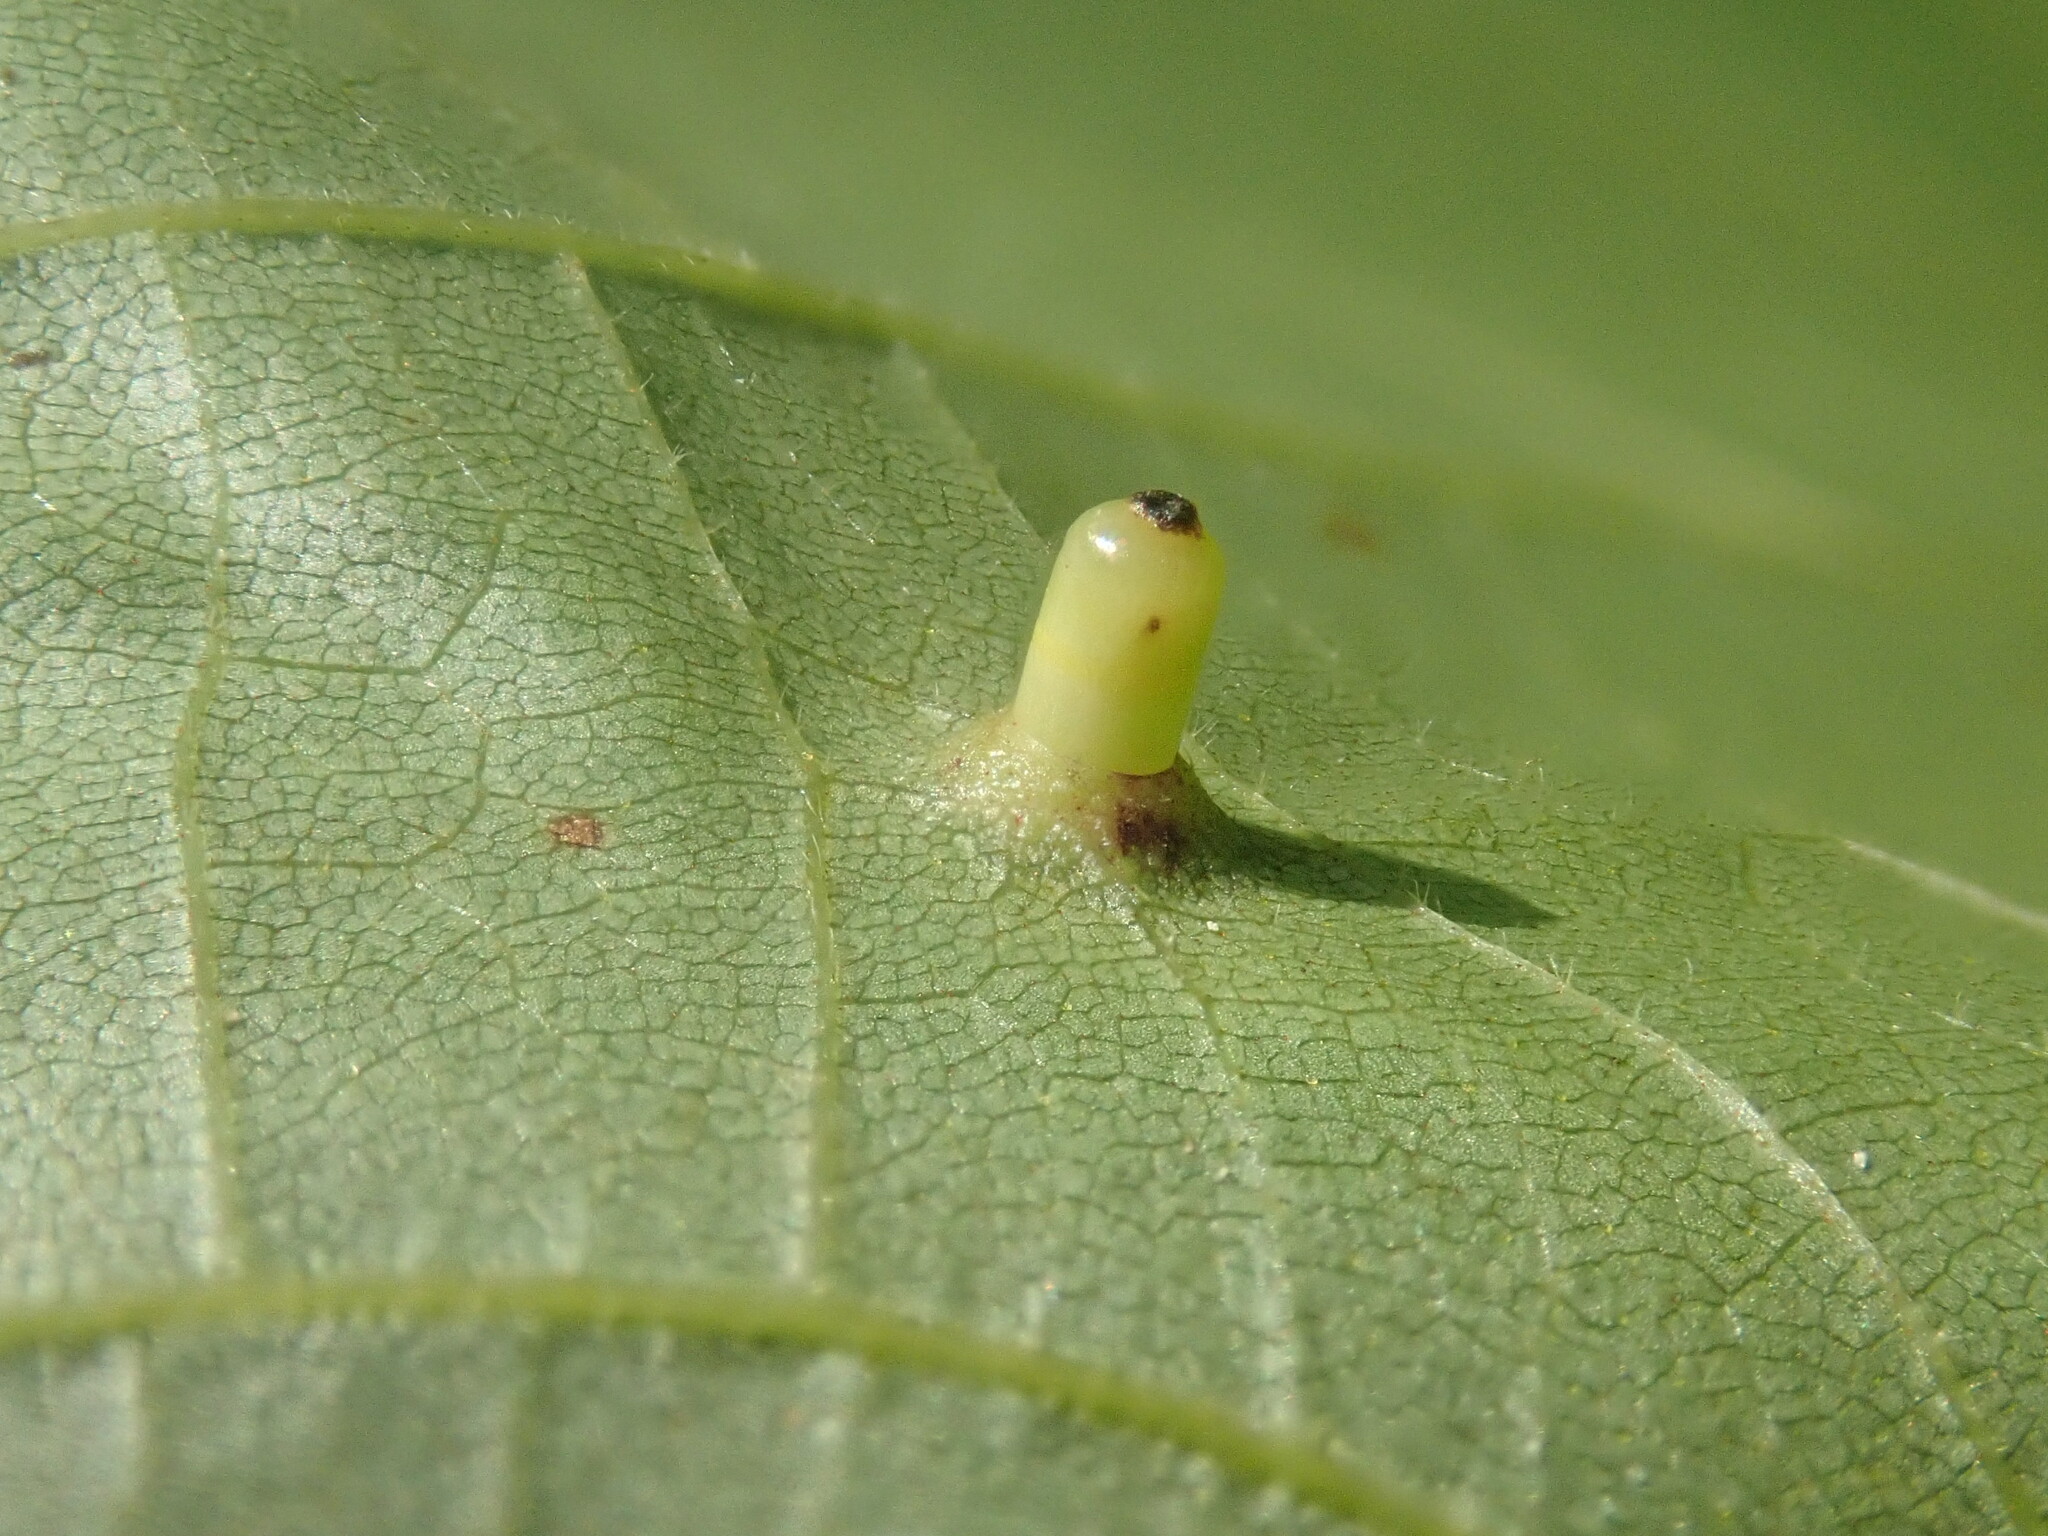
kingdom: Animalia
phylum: Arthropoda
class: Insecta
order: Diptera
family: Cecidomyiidae
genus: Caryomyia
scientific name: Caryomyia tubicola
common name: Hickory bullet gall midge
